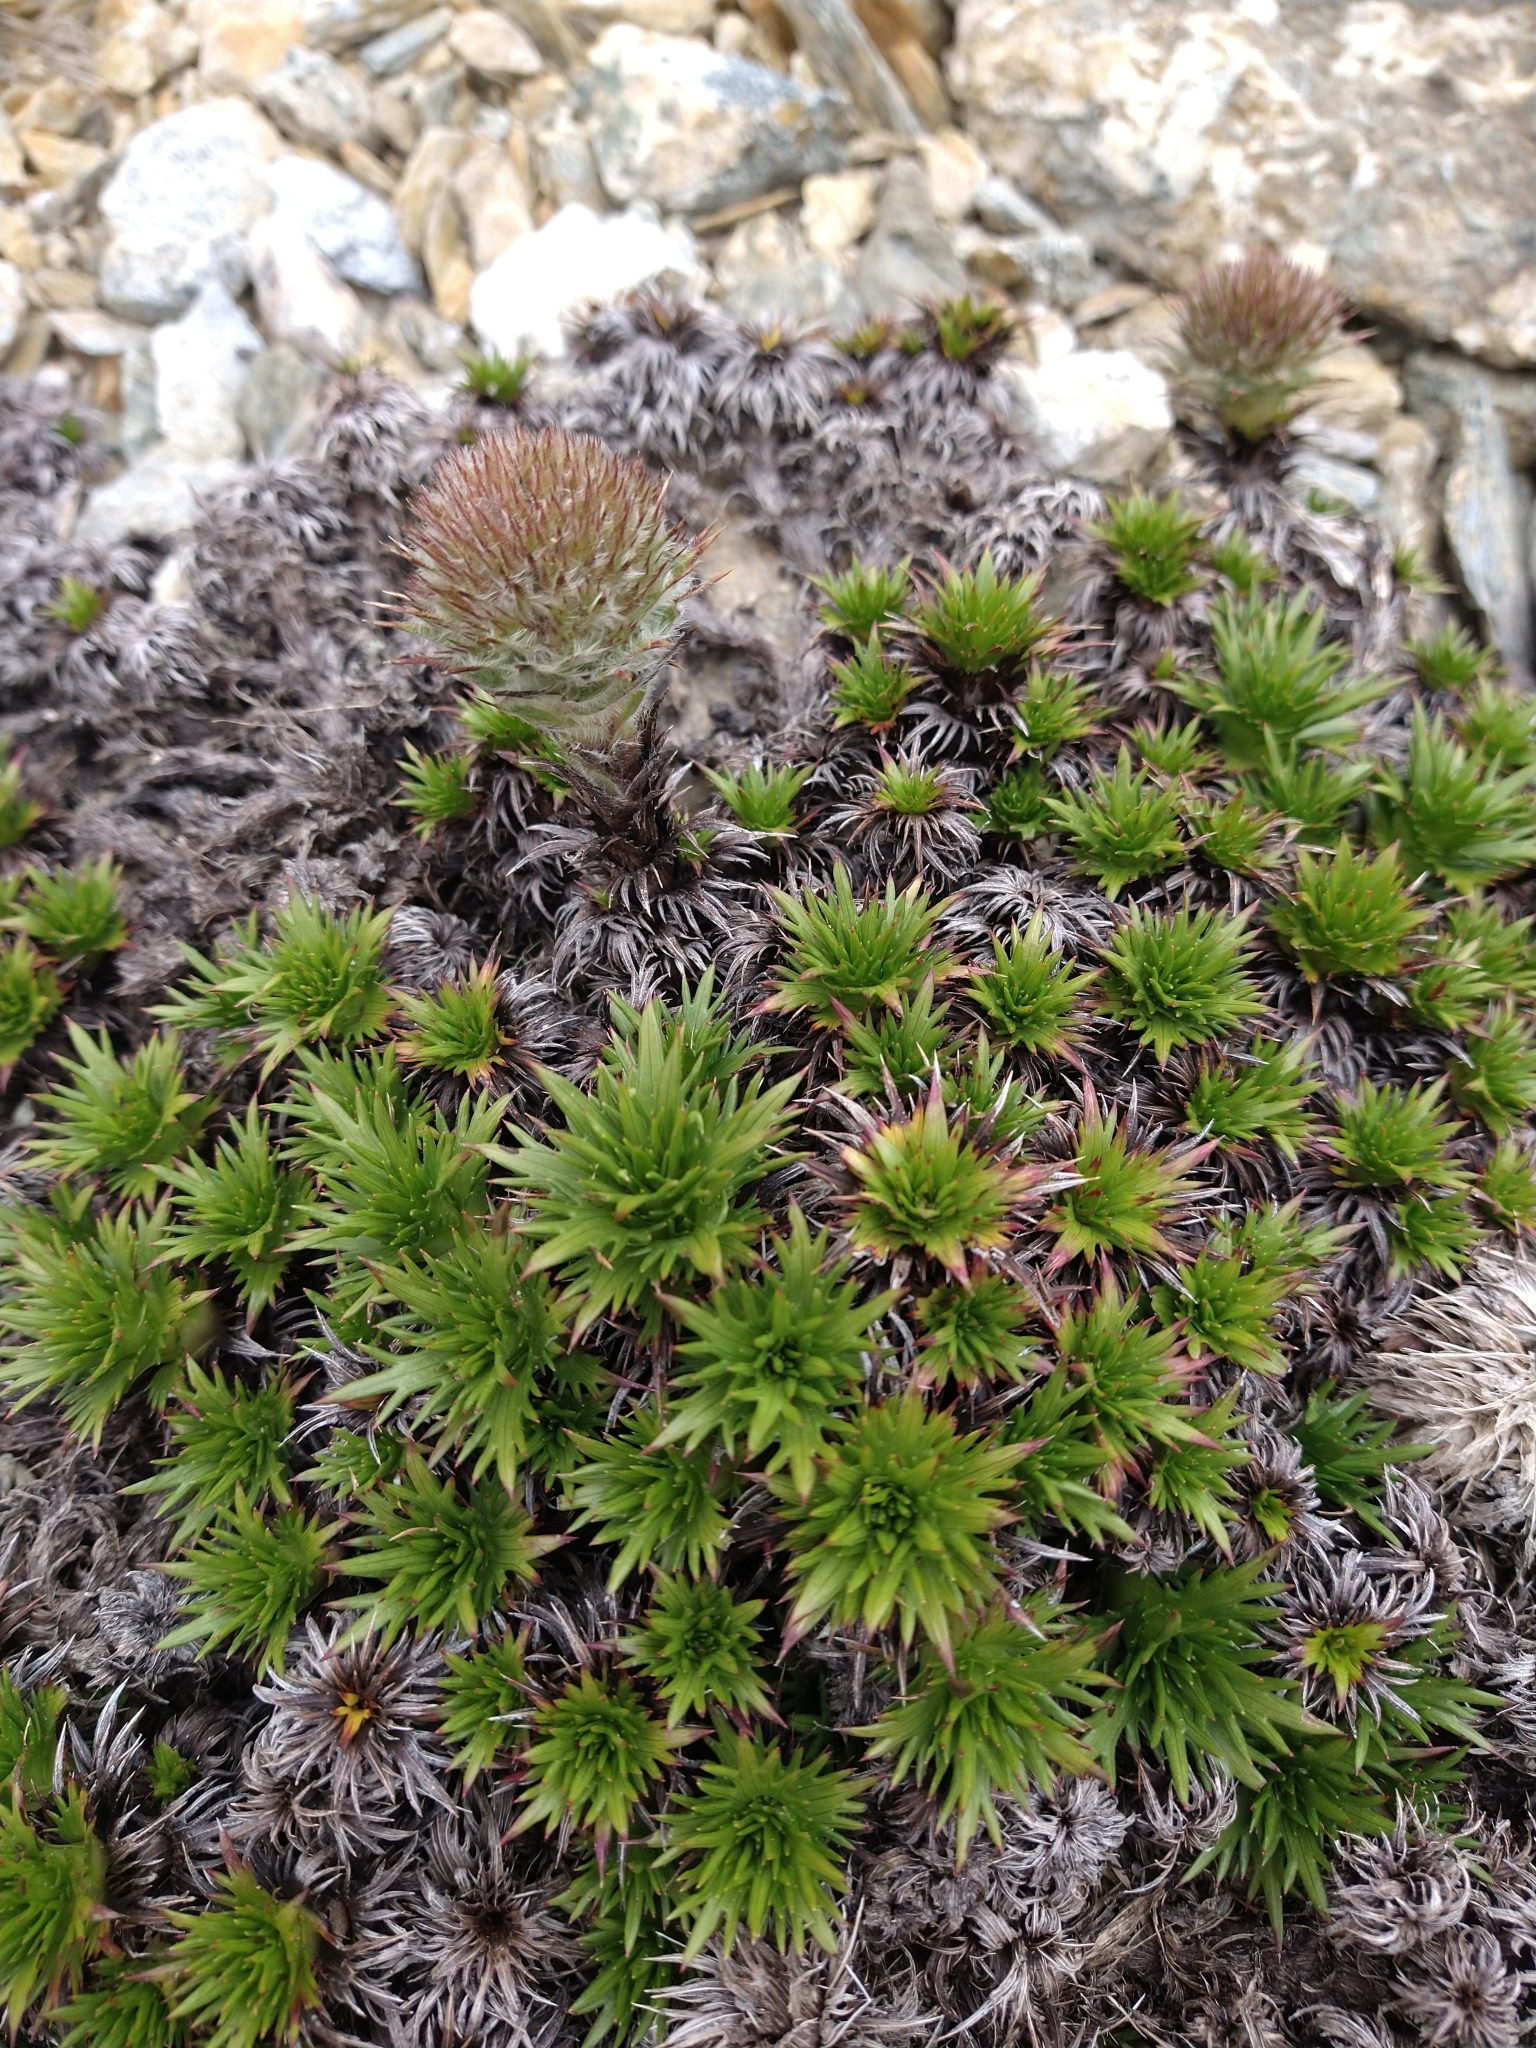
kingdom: Plantae
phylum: Tracheophyta
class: Magnoliopsida
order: Asterales
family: Asteraceae
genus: Nassauvia
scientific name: Nassauvia magellanica
